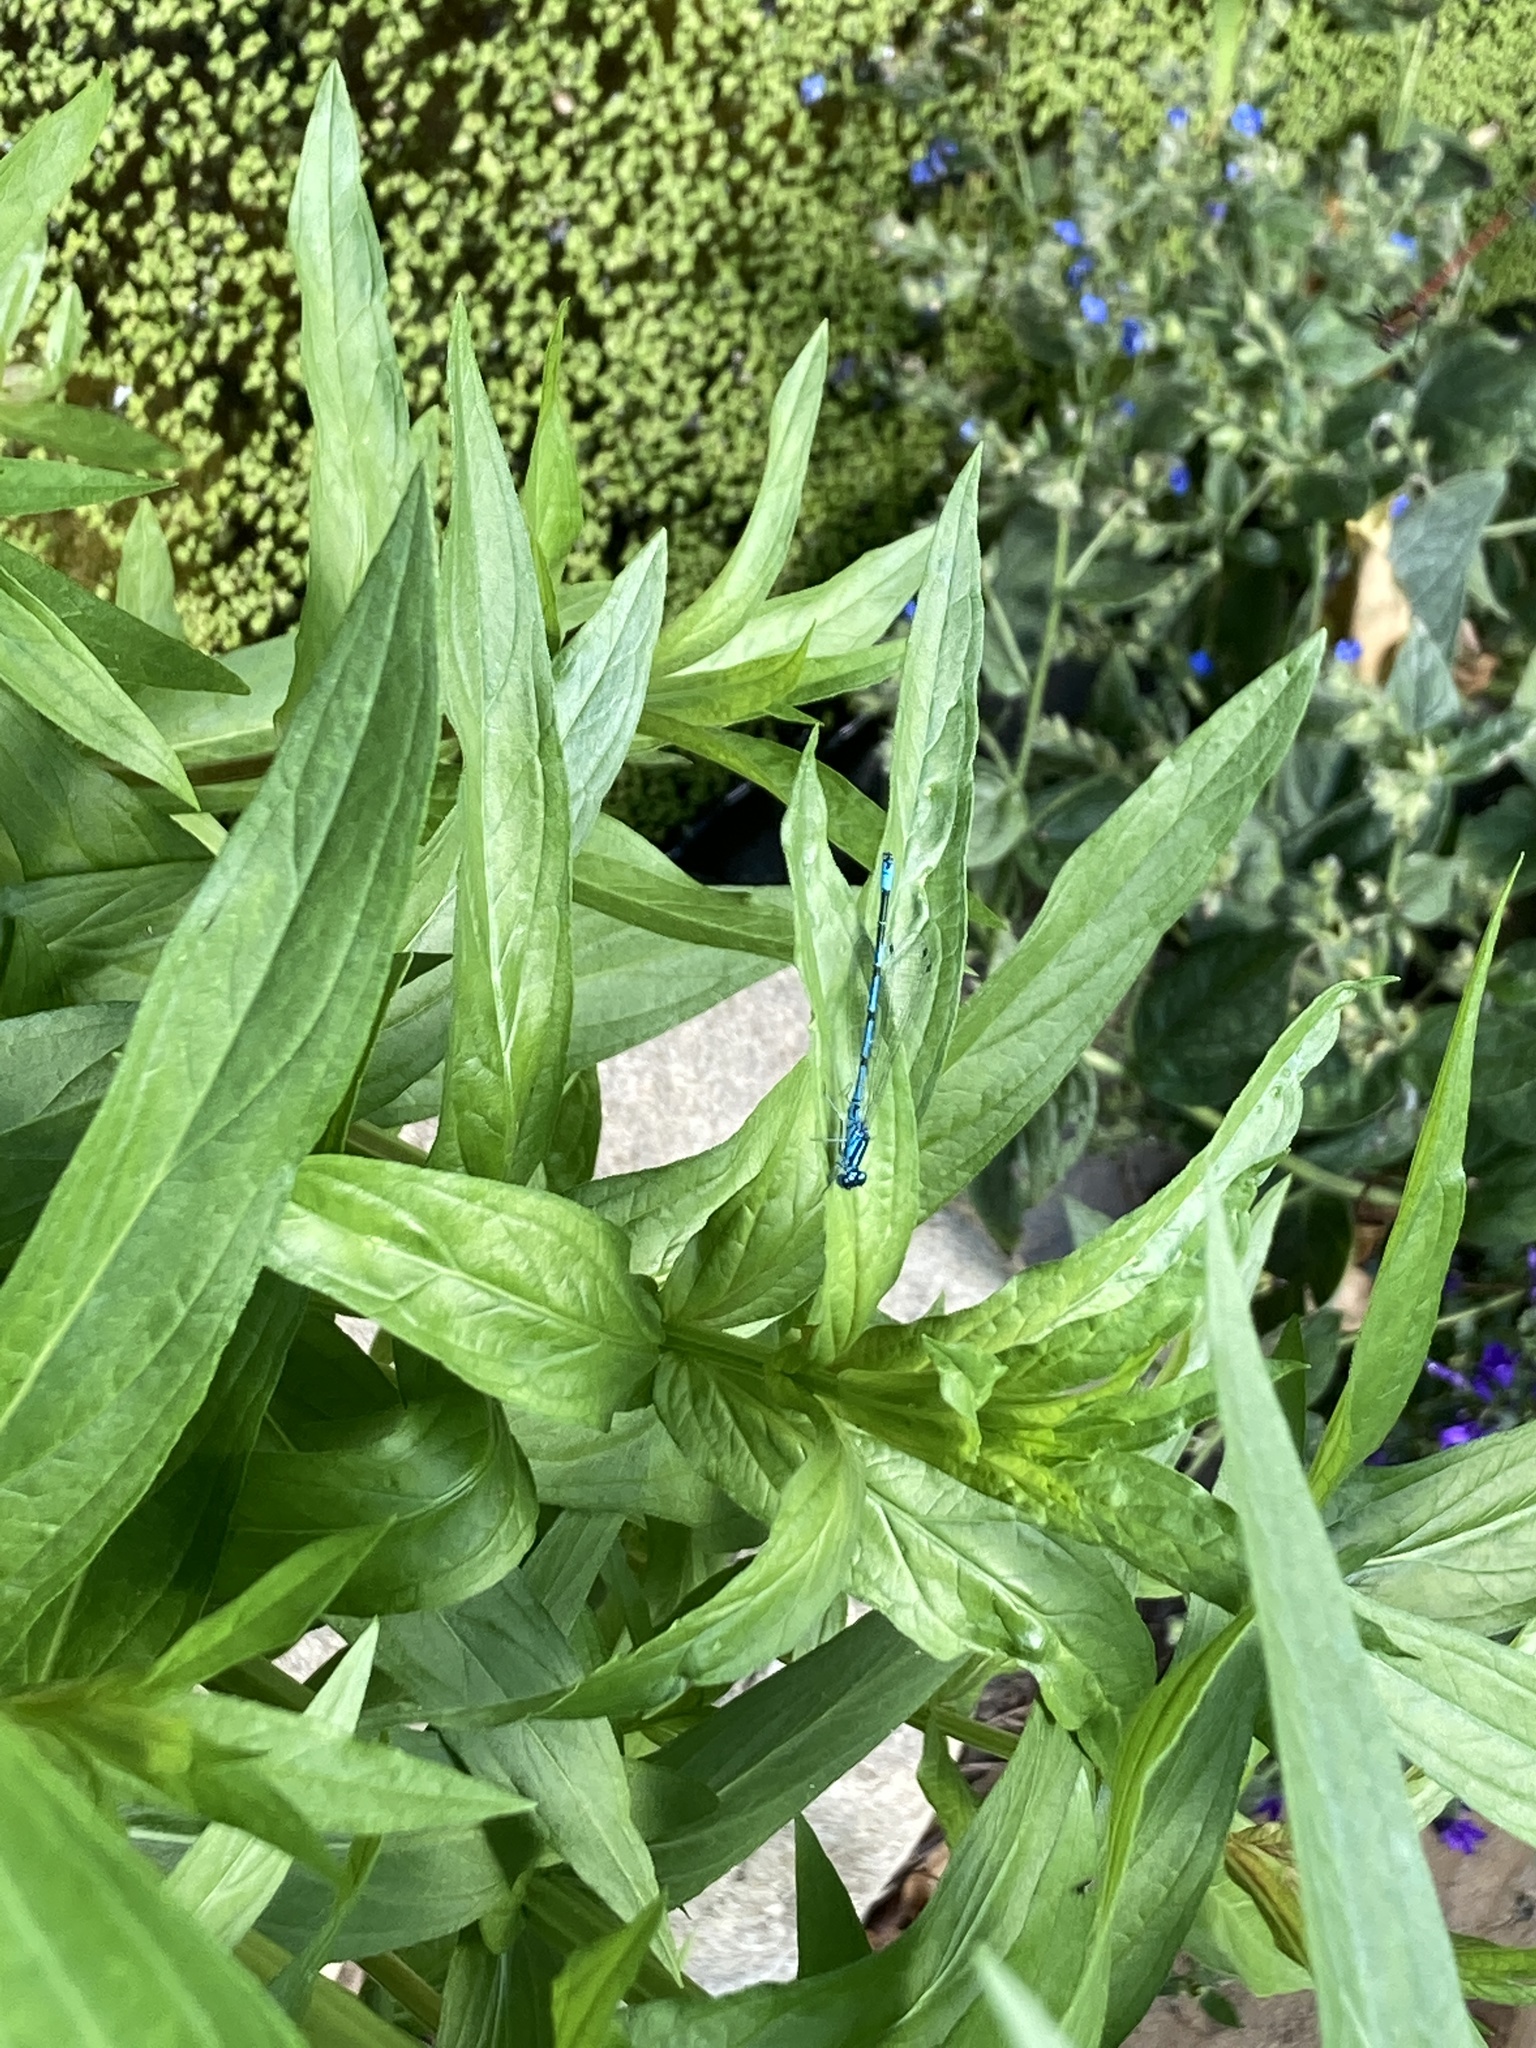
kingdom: Animalia
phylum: Arthropoda
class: Insecta
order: Odonata
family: Coenagrionidae
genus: Coenagrion
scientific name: Coenagrion puella
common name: Azure damselfly
